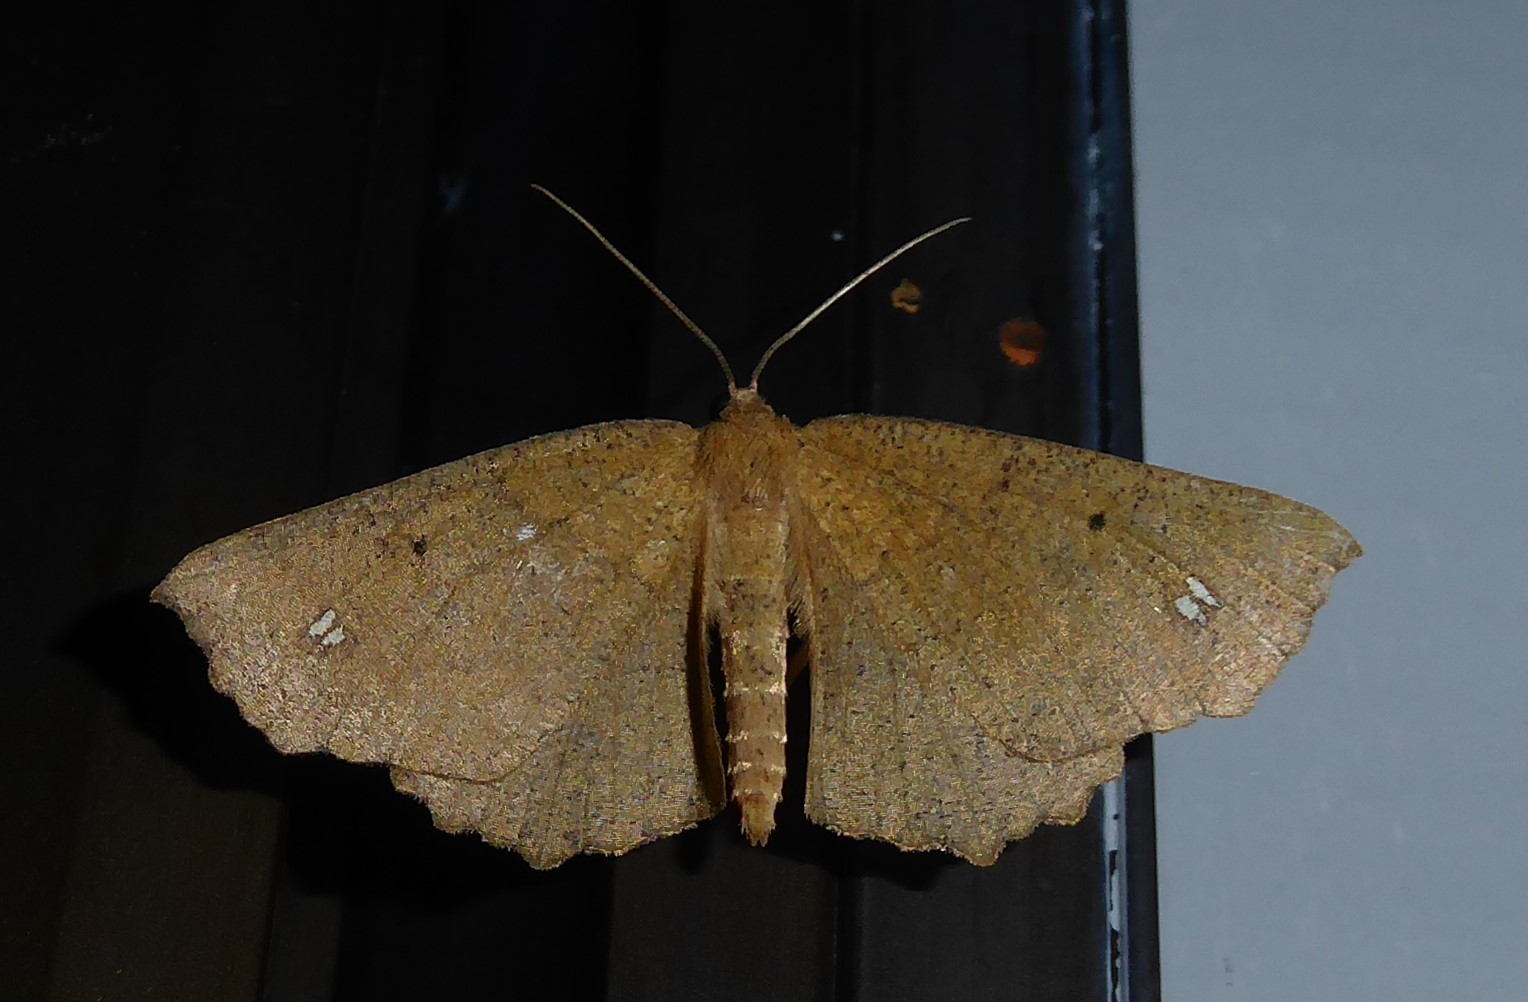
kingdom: Animalia
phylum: Arthropoda
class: Insecta
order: Lepidoptera
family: Geometridae
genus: Xyridacma
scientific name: Xyridacma ustaria
